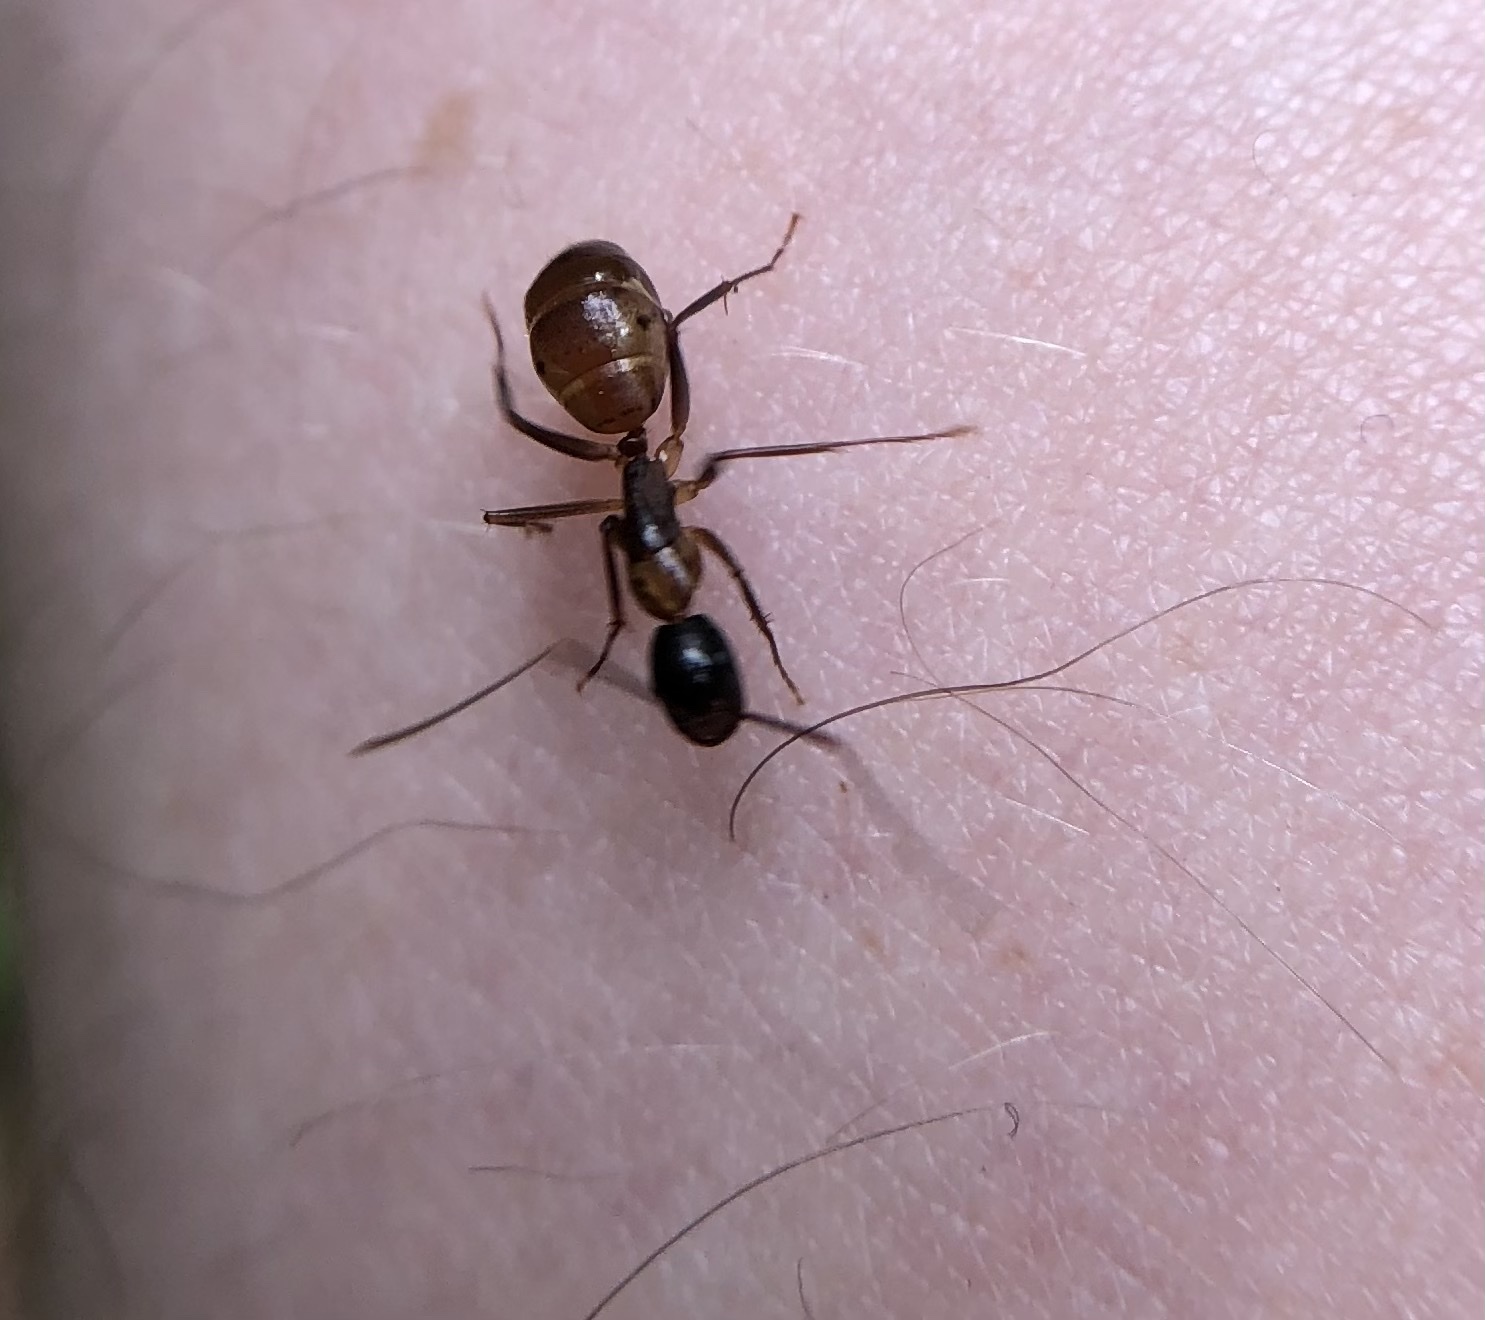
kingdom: Animalia
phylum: Arthropoda
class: Insecta
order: Hymenoptera
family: Formicidae
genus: Camponotus
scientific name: Camponotus americanus
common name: American carpenter ant
